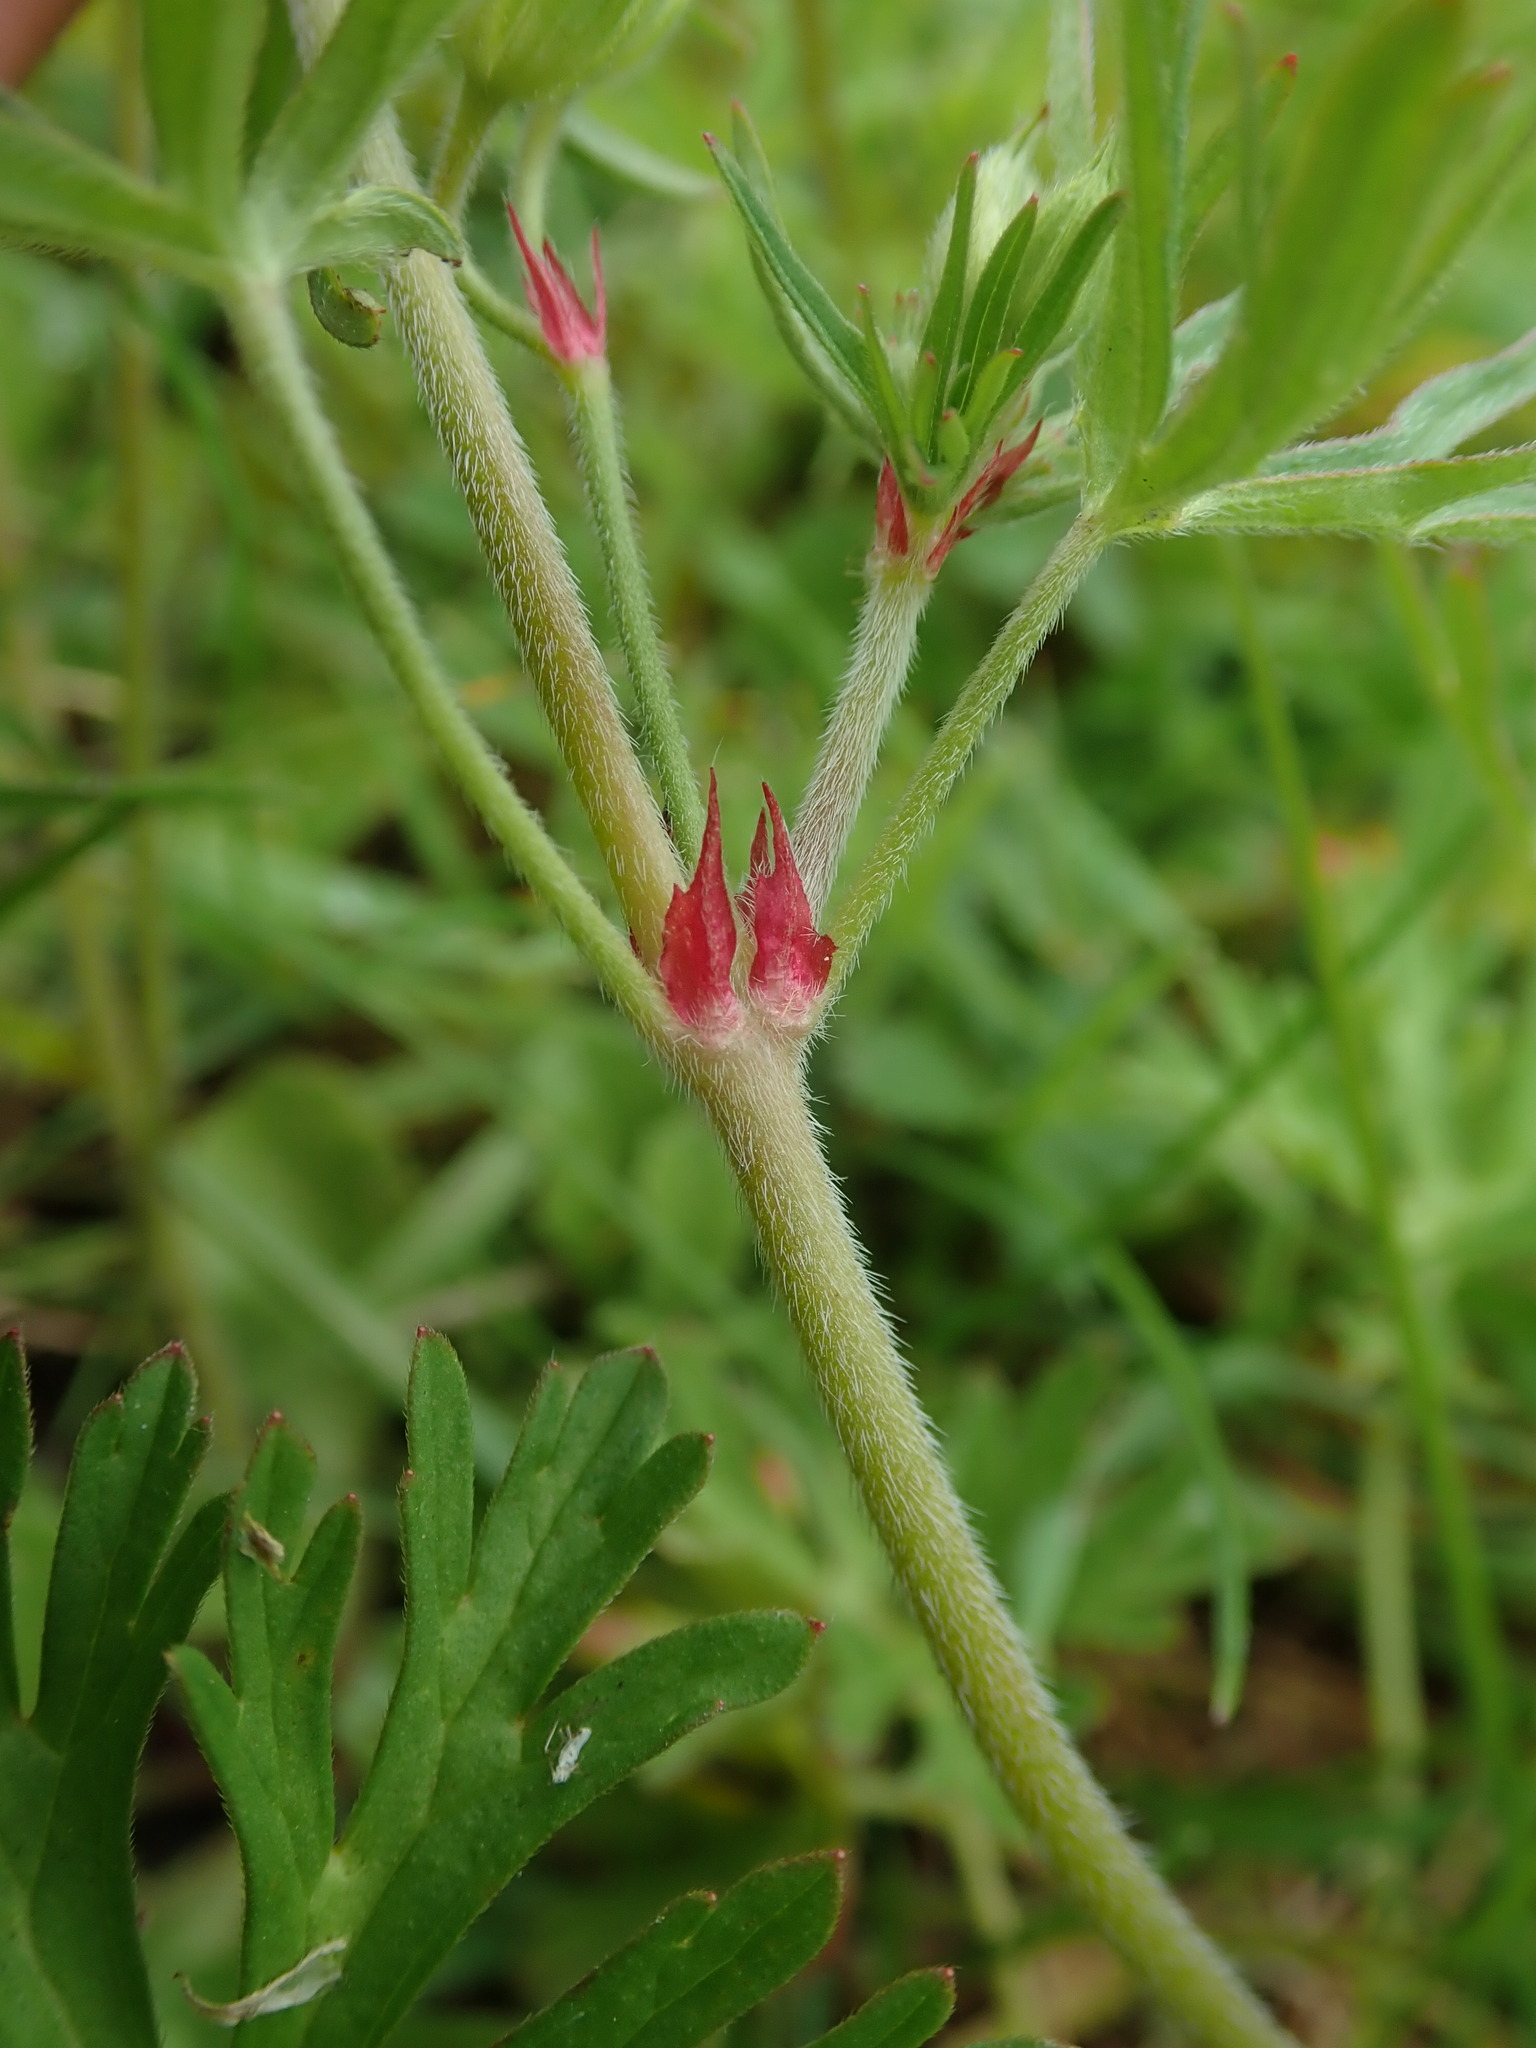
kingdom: Plantae
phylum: Tracheophyta
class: Magnoliopsida
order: Geraniales
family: Geraniaceae
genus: Geranium
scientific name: Geranium dissectum
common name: Cut-leaved crane's-bill
